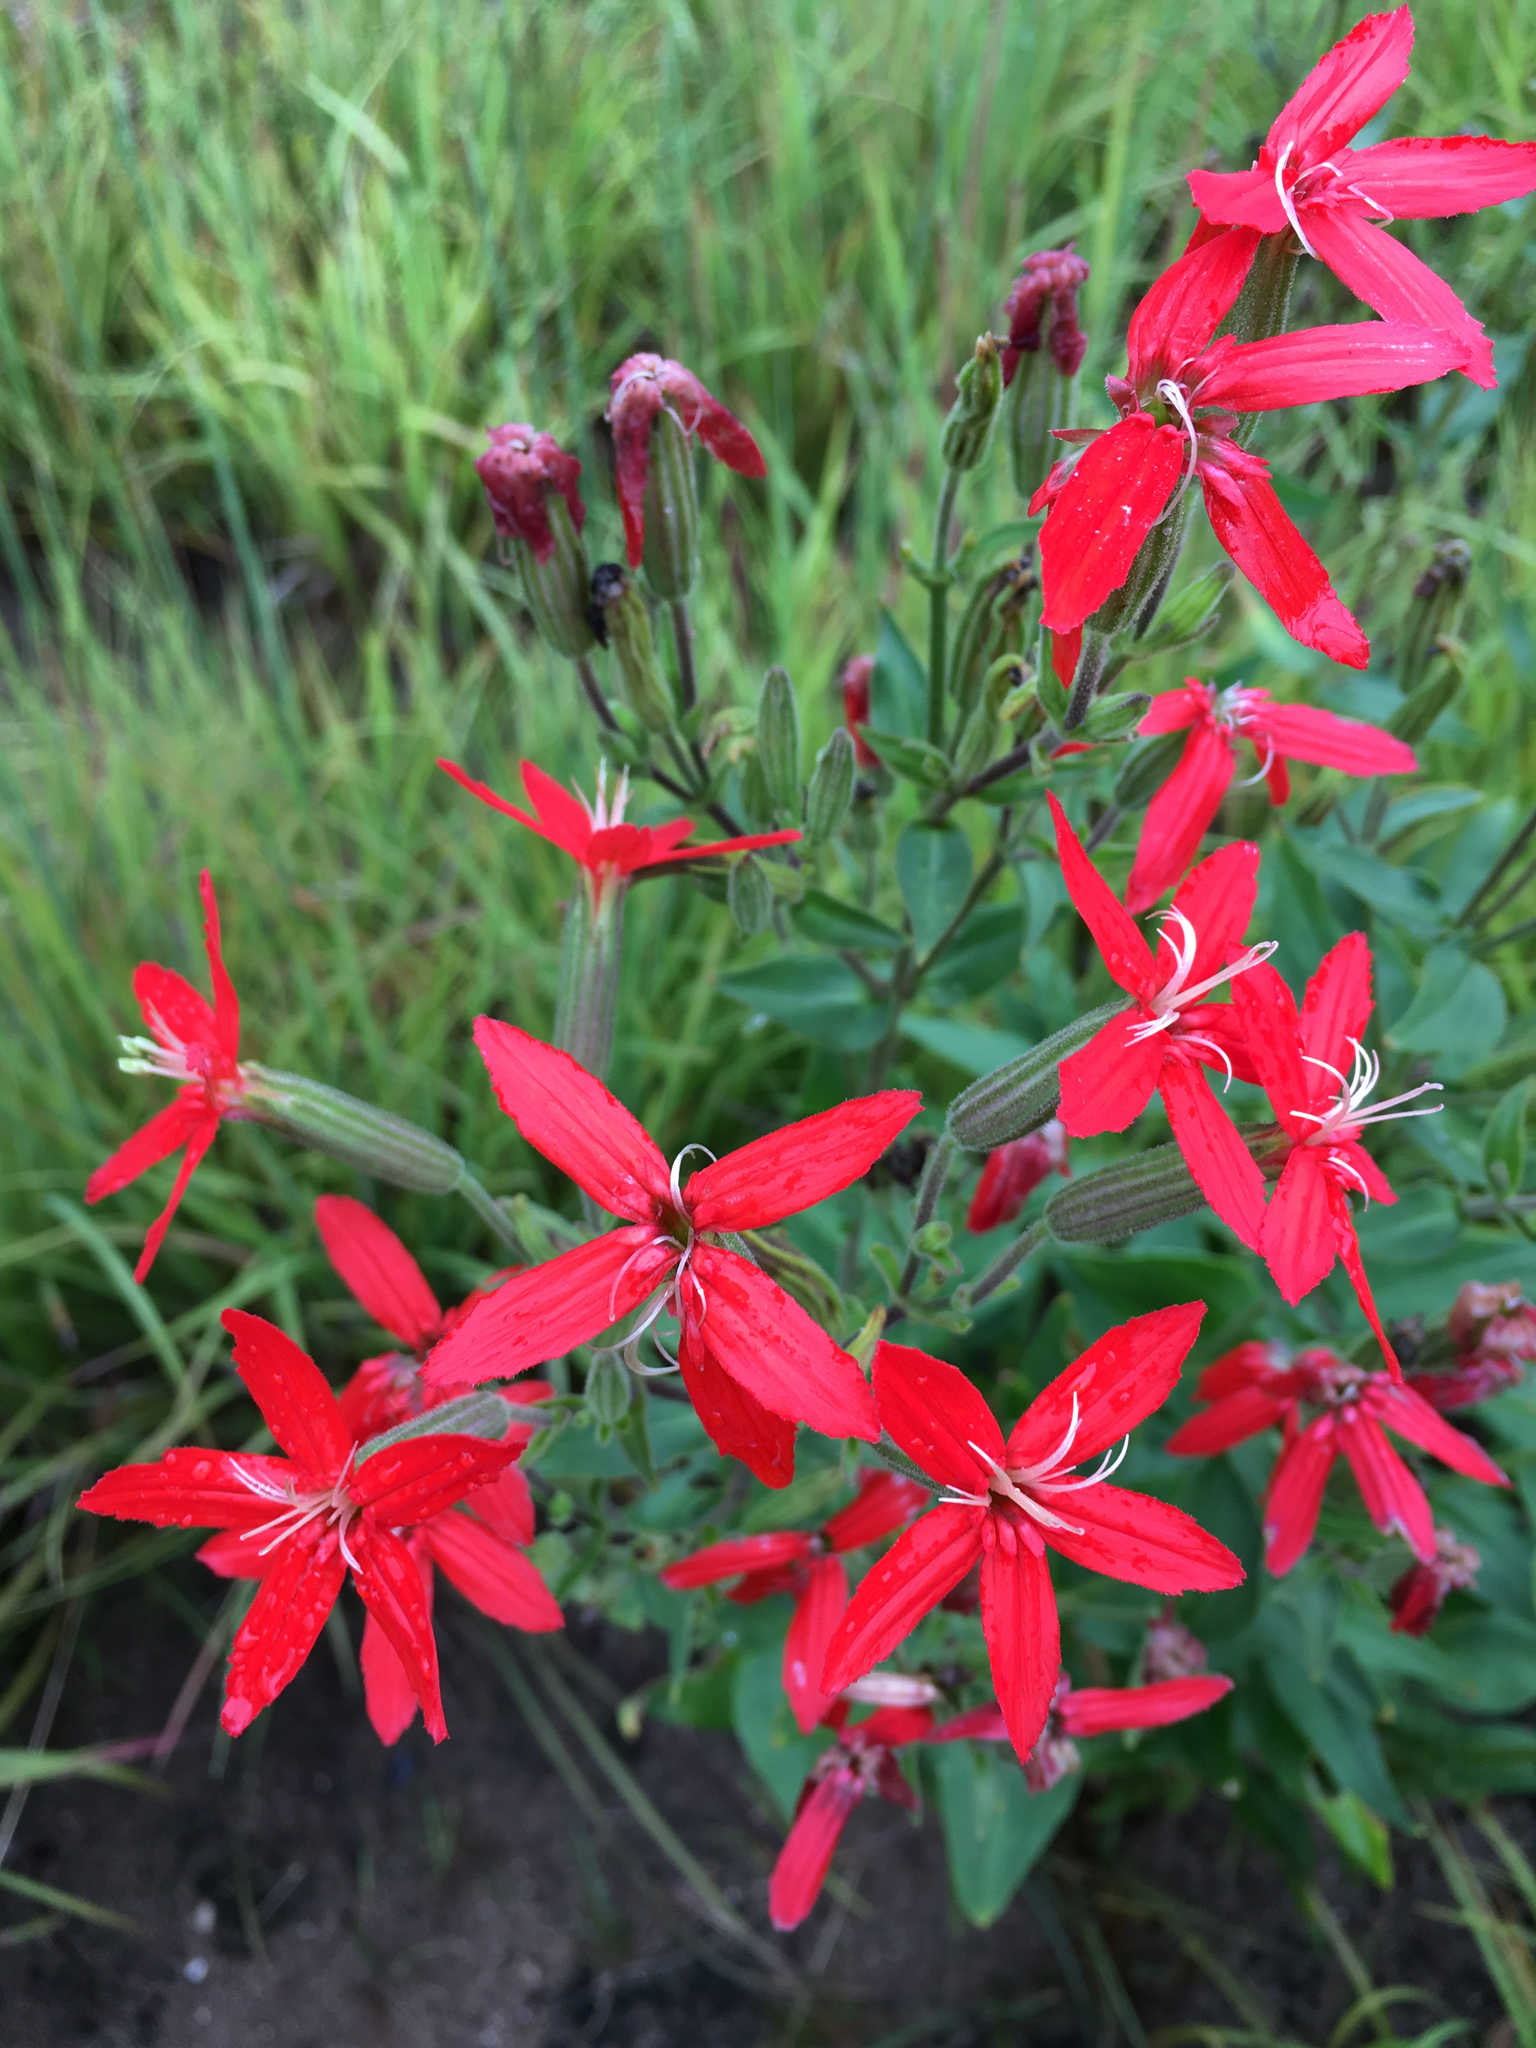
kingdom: Plantae
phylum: Tracheophyta
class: Magnoliopsida
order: Caryophyllales
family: Caryophyllaceae
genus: Silene
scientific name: Silene regia
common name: Royal catchfly
